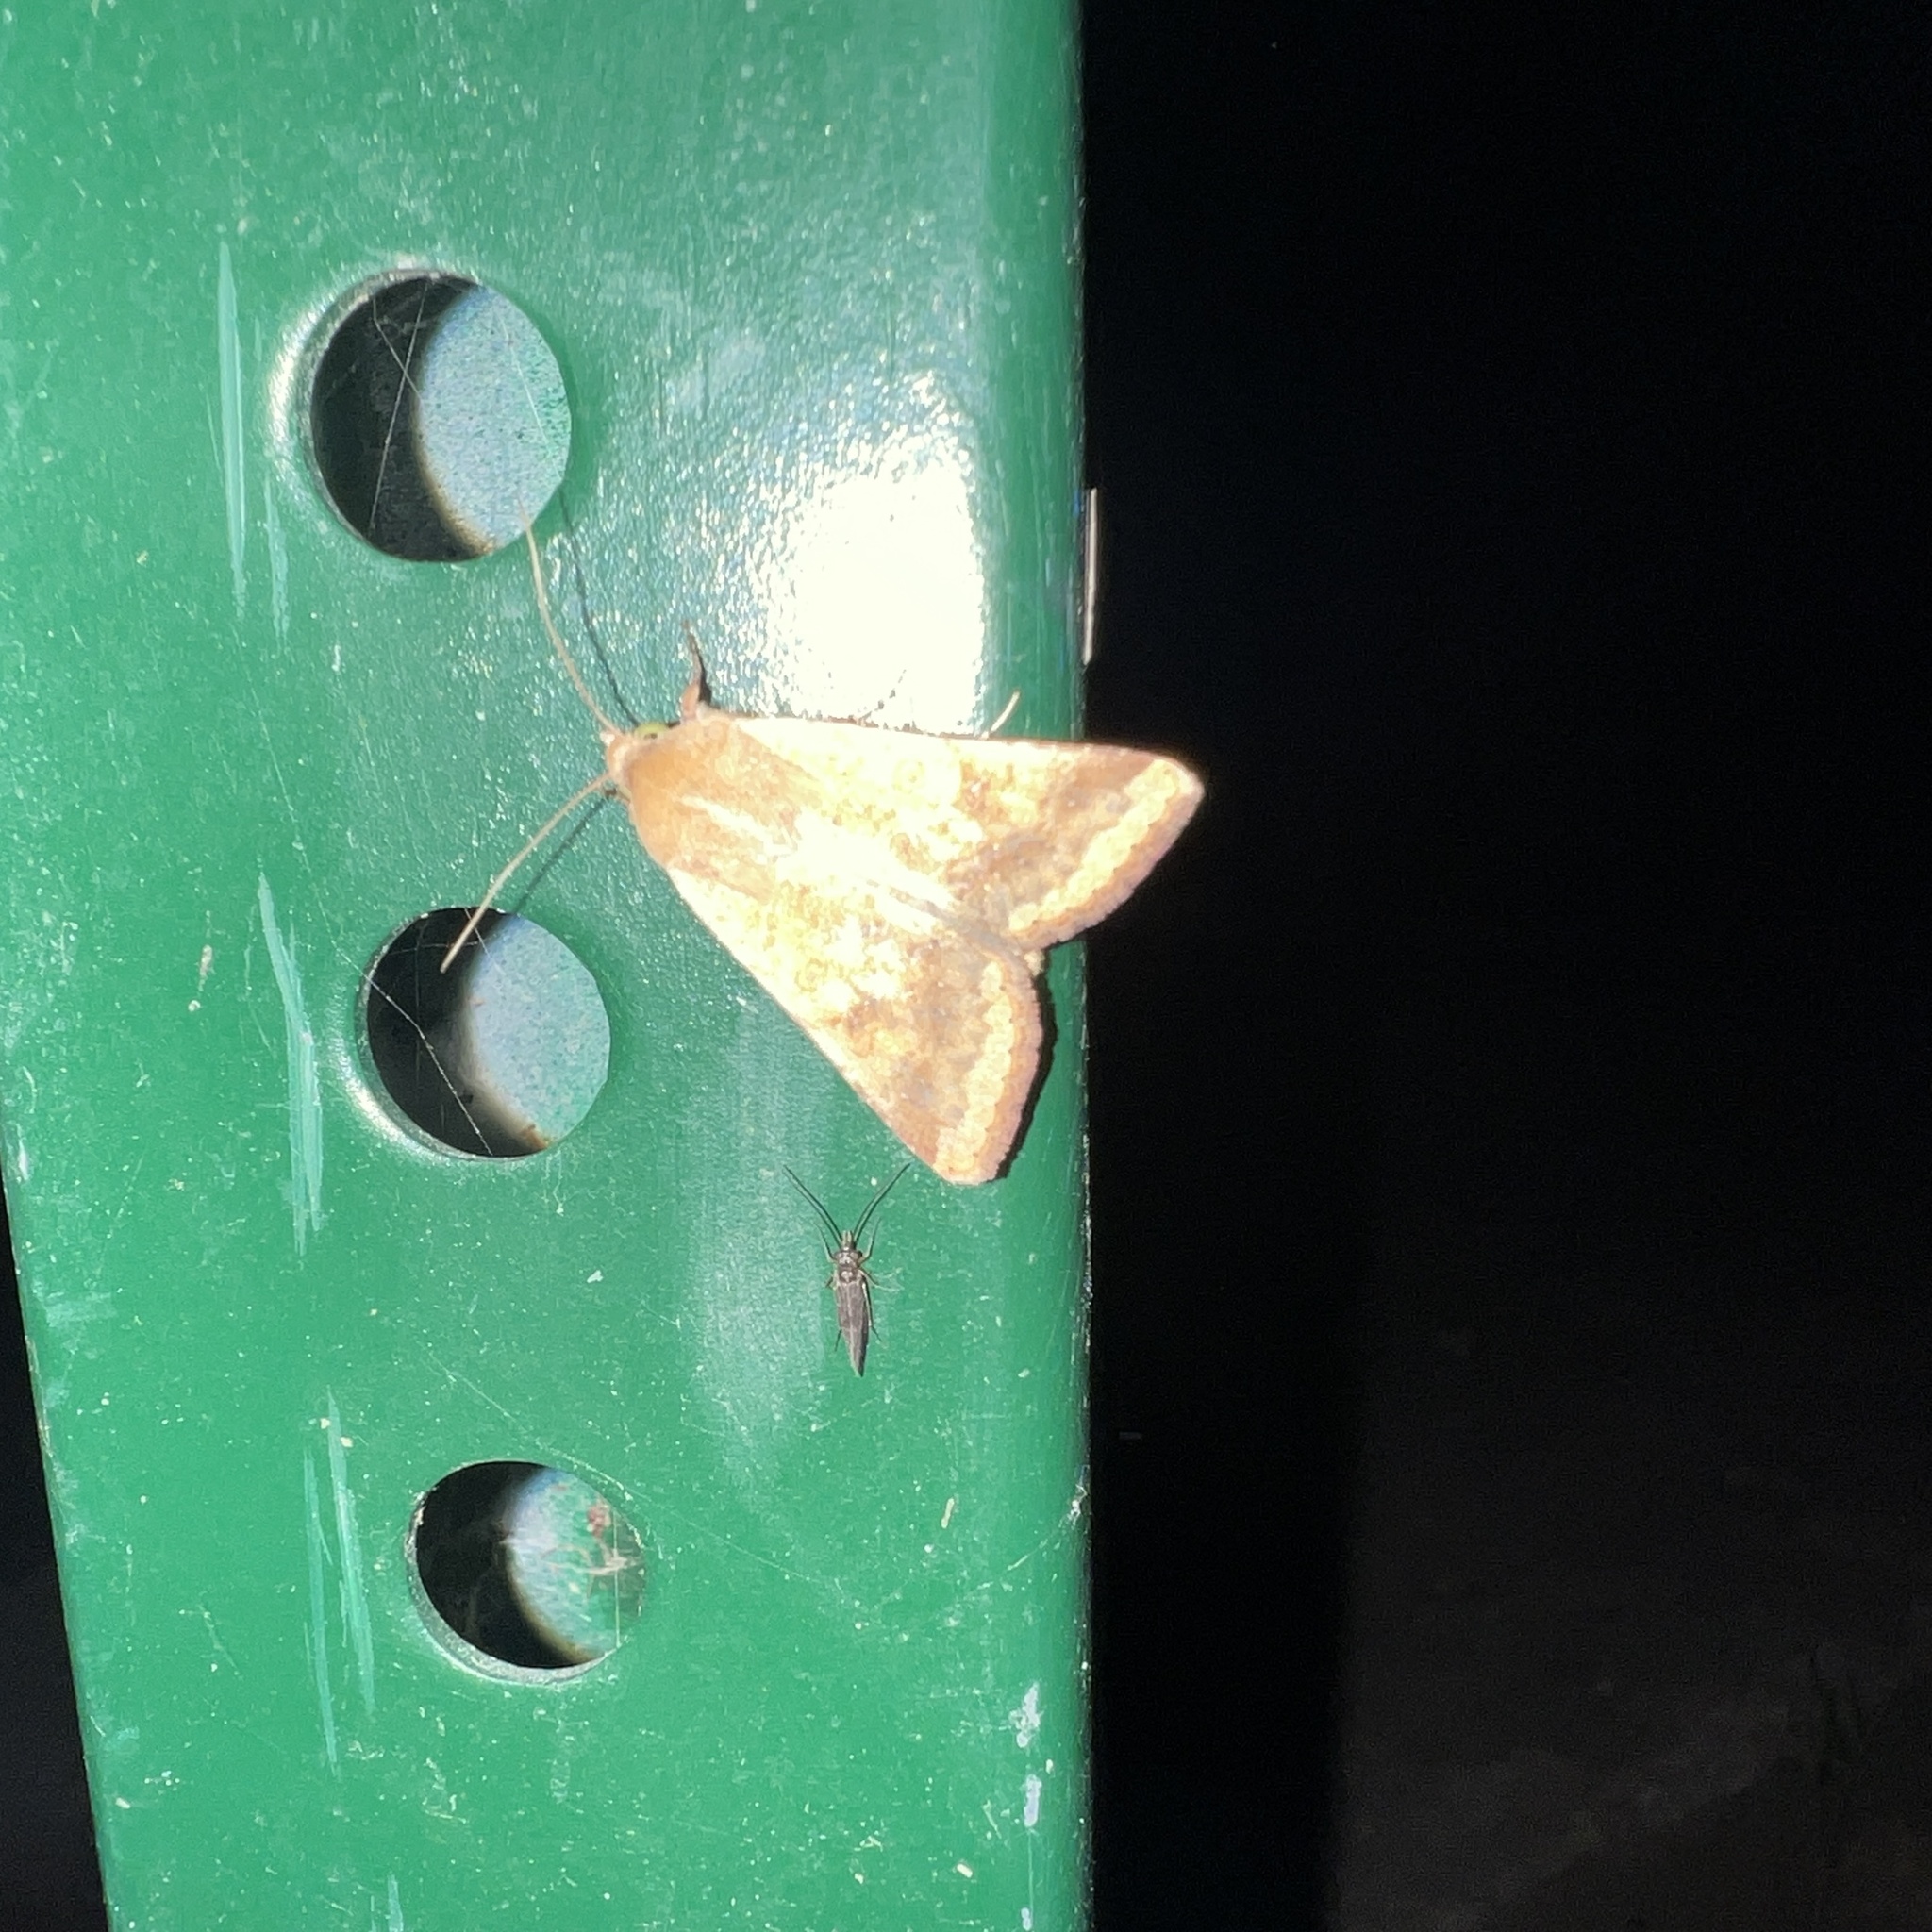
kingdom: Animalia
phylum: Arthropoda
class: Insecta
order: Lepidoptera
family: Noctuidae
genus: Helicoverpa
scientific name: Helicoverpa zea
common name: Bollworm
